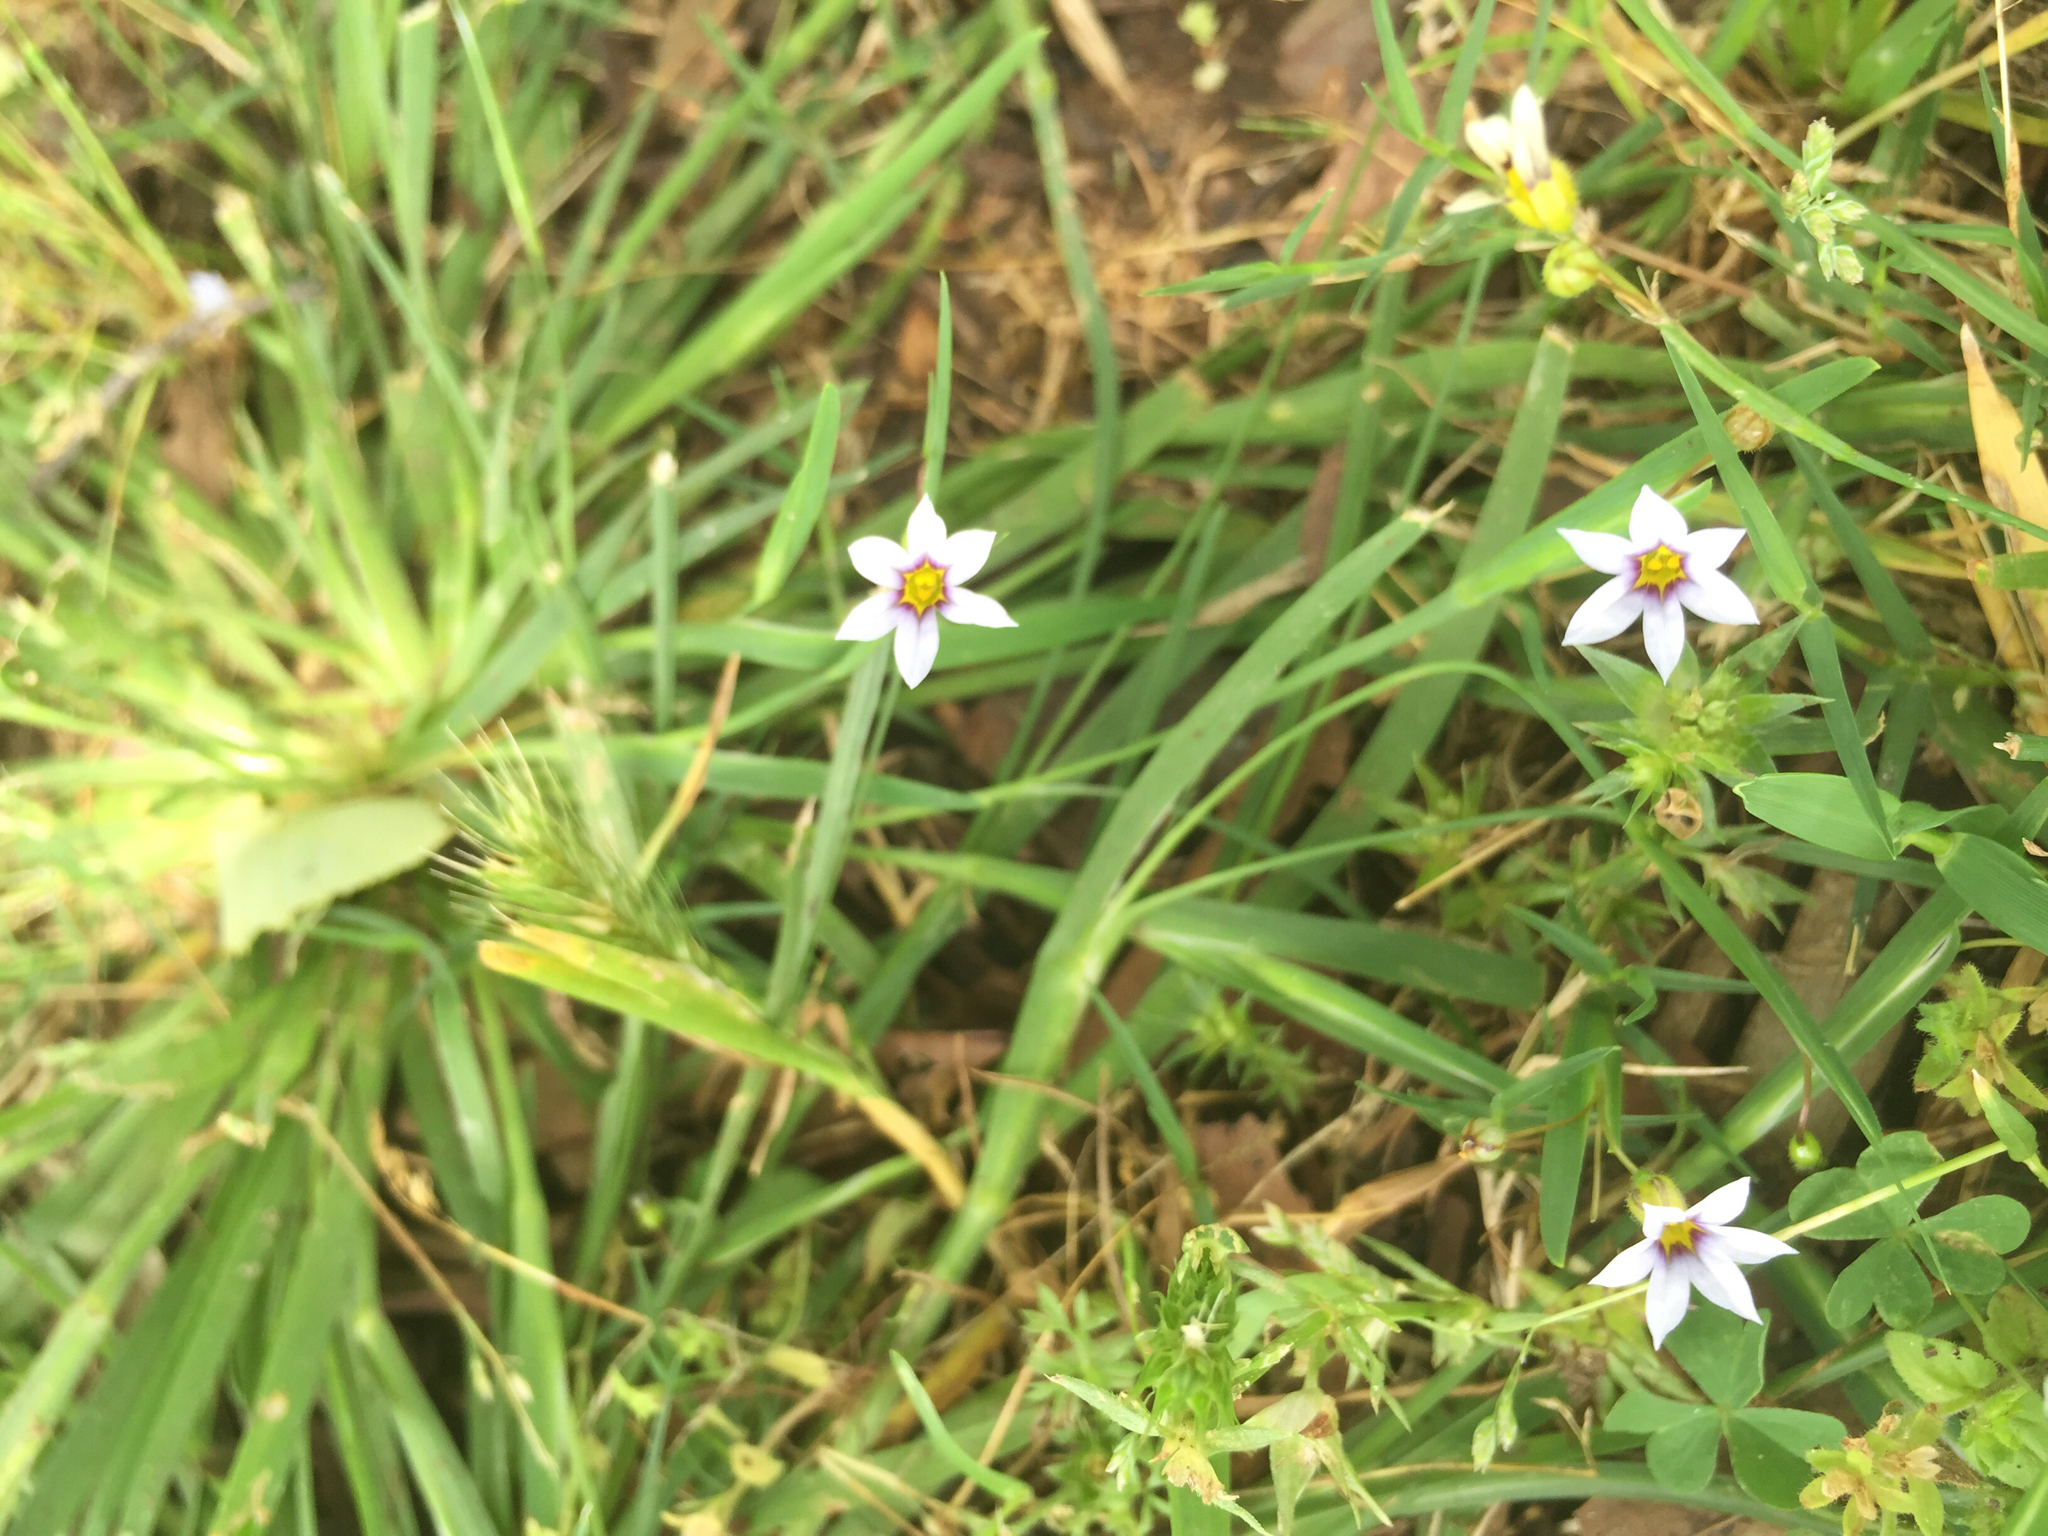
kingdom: Plantae
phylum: Tracheophyta
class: Liliopsida
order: Asparagales
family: Iridaceae
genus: Sisyrinchium
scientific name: Sisyrinchium micranthum
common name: Bermuda pigroot
